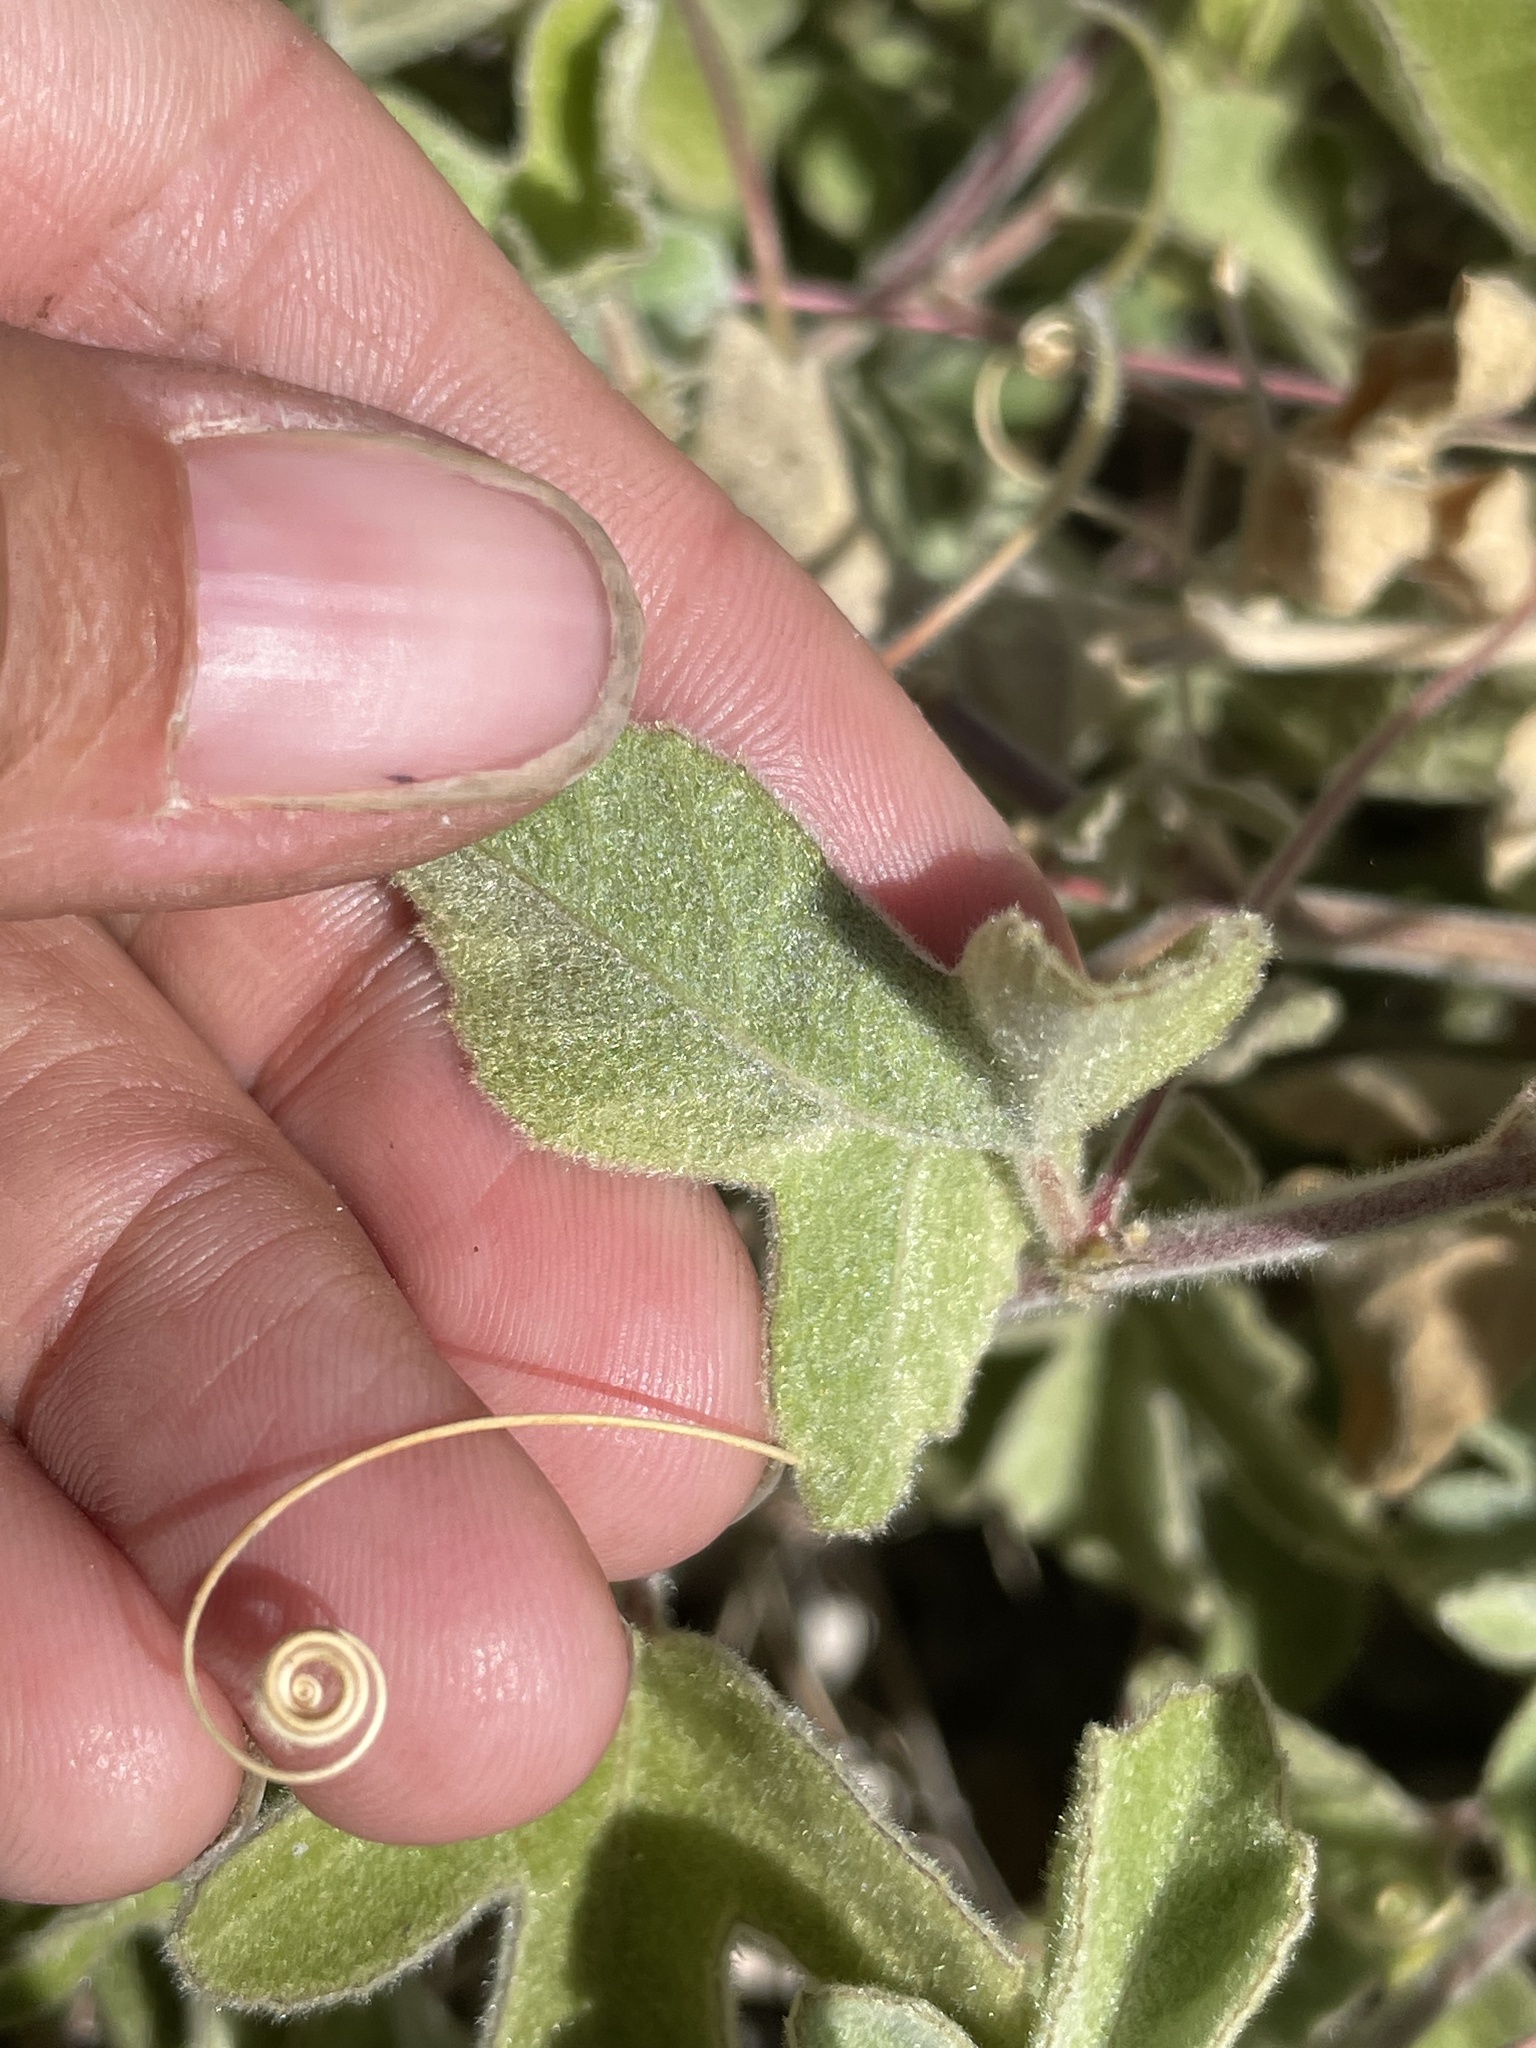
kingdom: Plantae
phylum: Tracheophyta
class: Magnoliopsida
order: Malpighiales
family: Passifloraceae
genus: Passiflora
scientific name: Passiflora arida
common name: Desert passionflower
